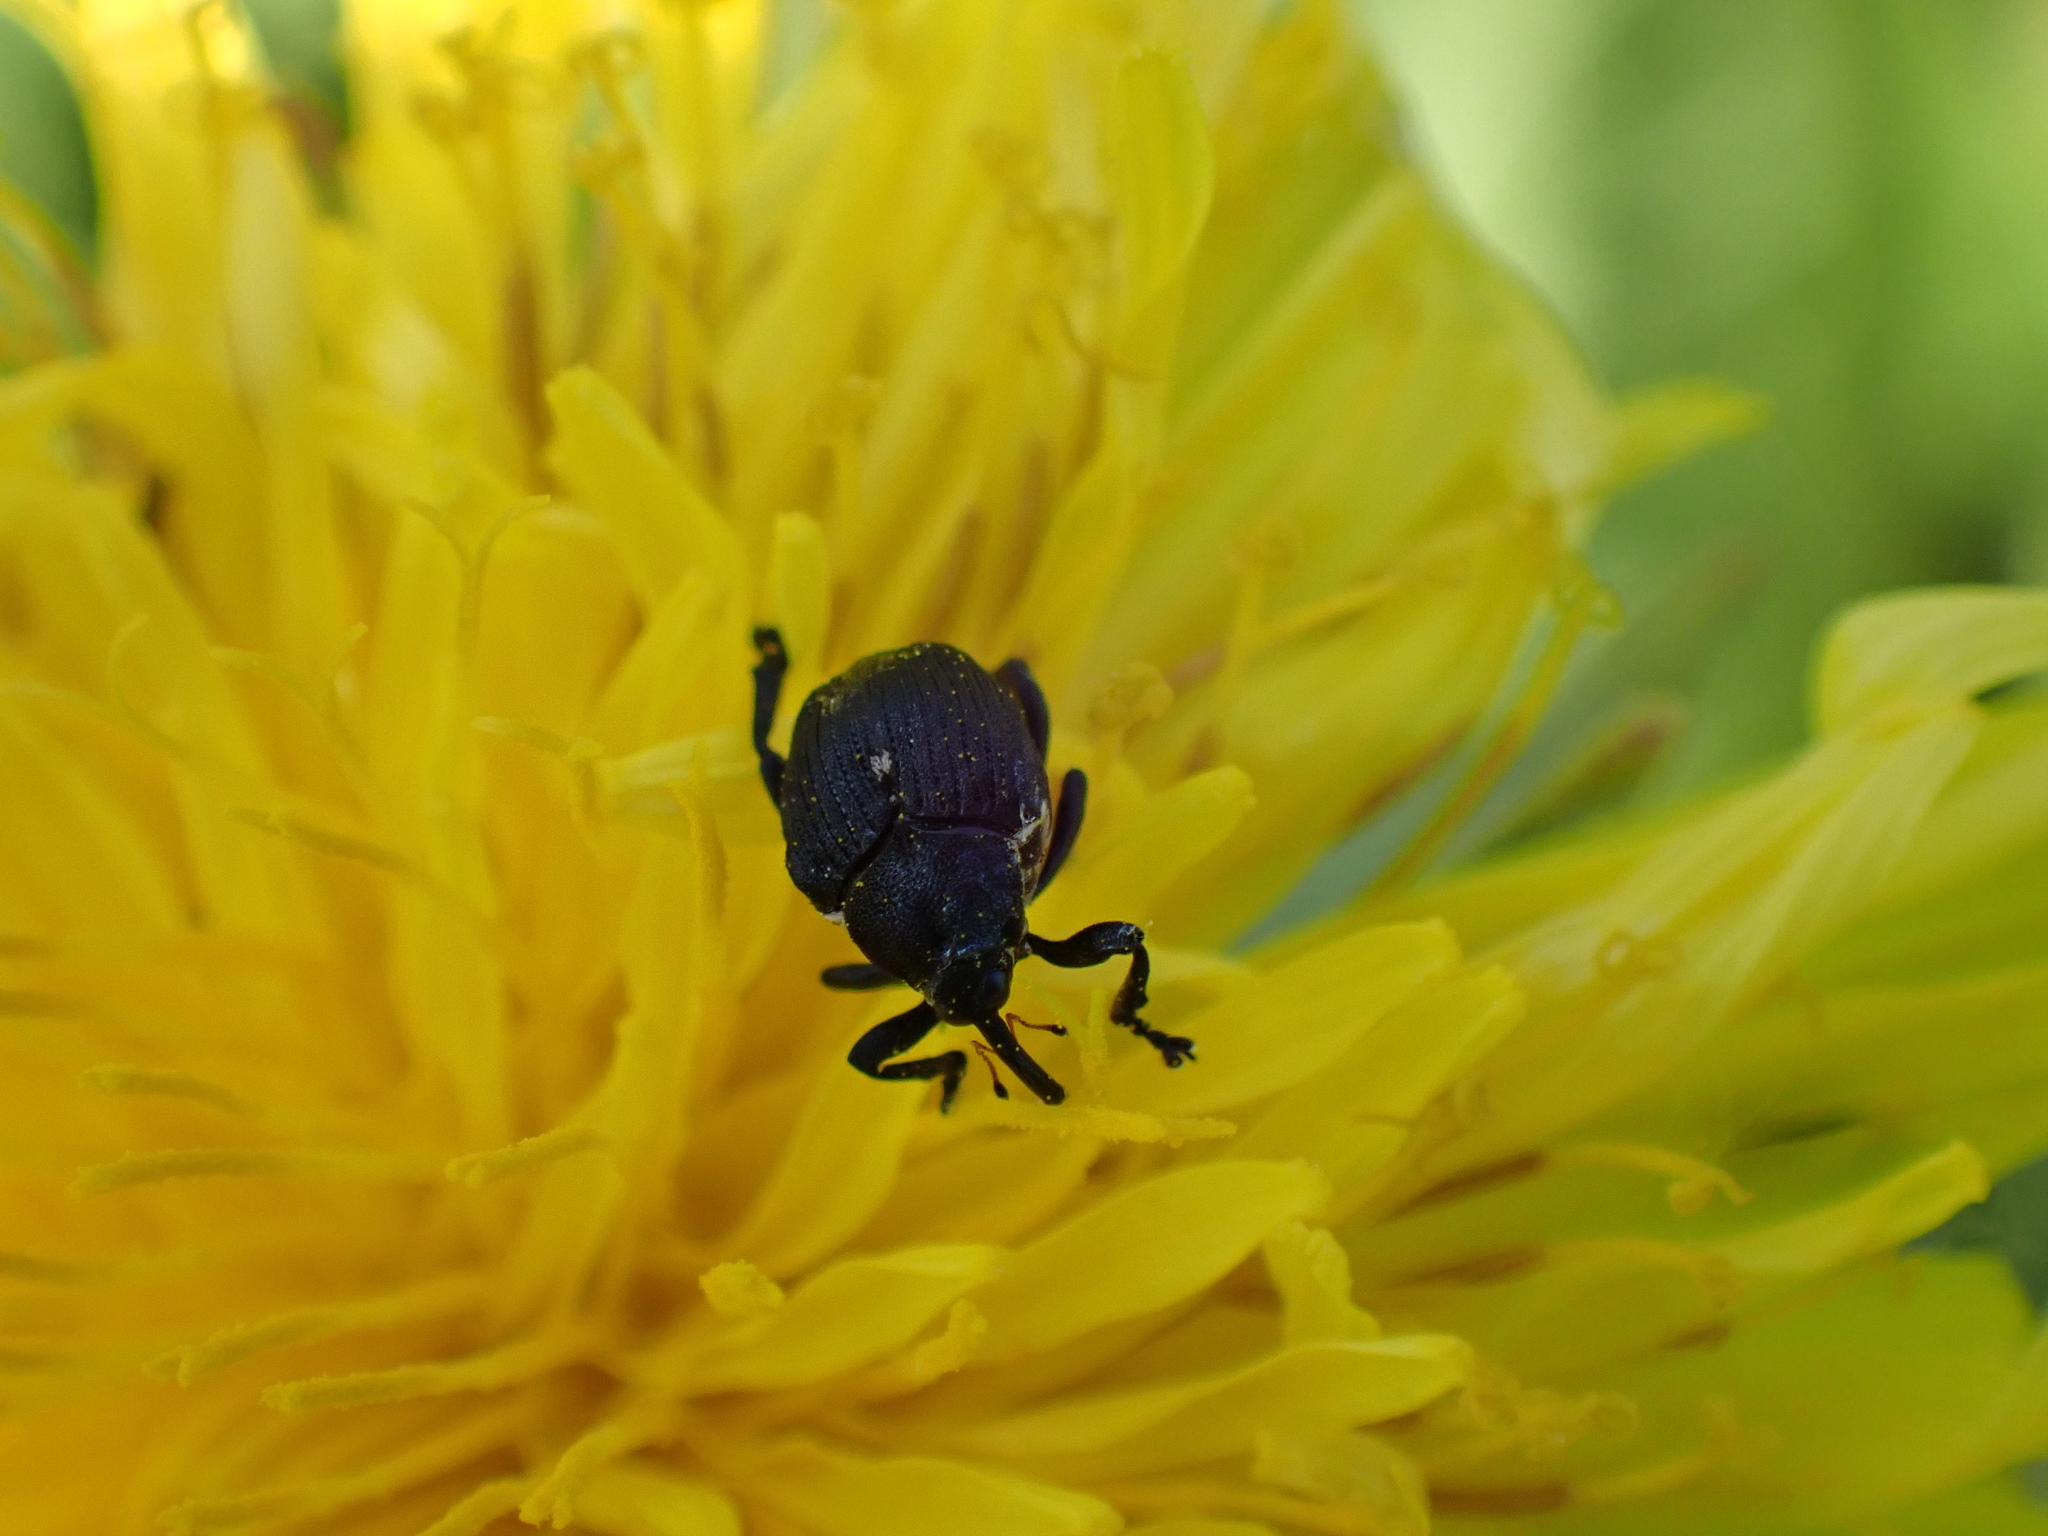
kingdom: Animalia
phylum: Arthropoda
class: Insecta
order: Coleoptera
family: Curculionidae
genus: Mononychus
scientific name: Mononychus punctumalbum
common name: Iris weevil
